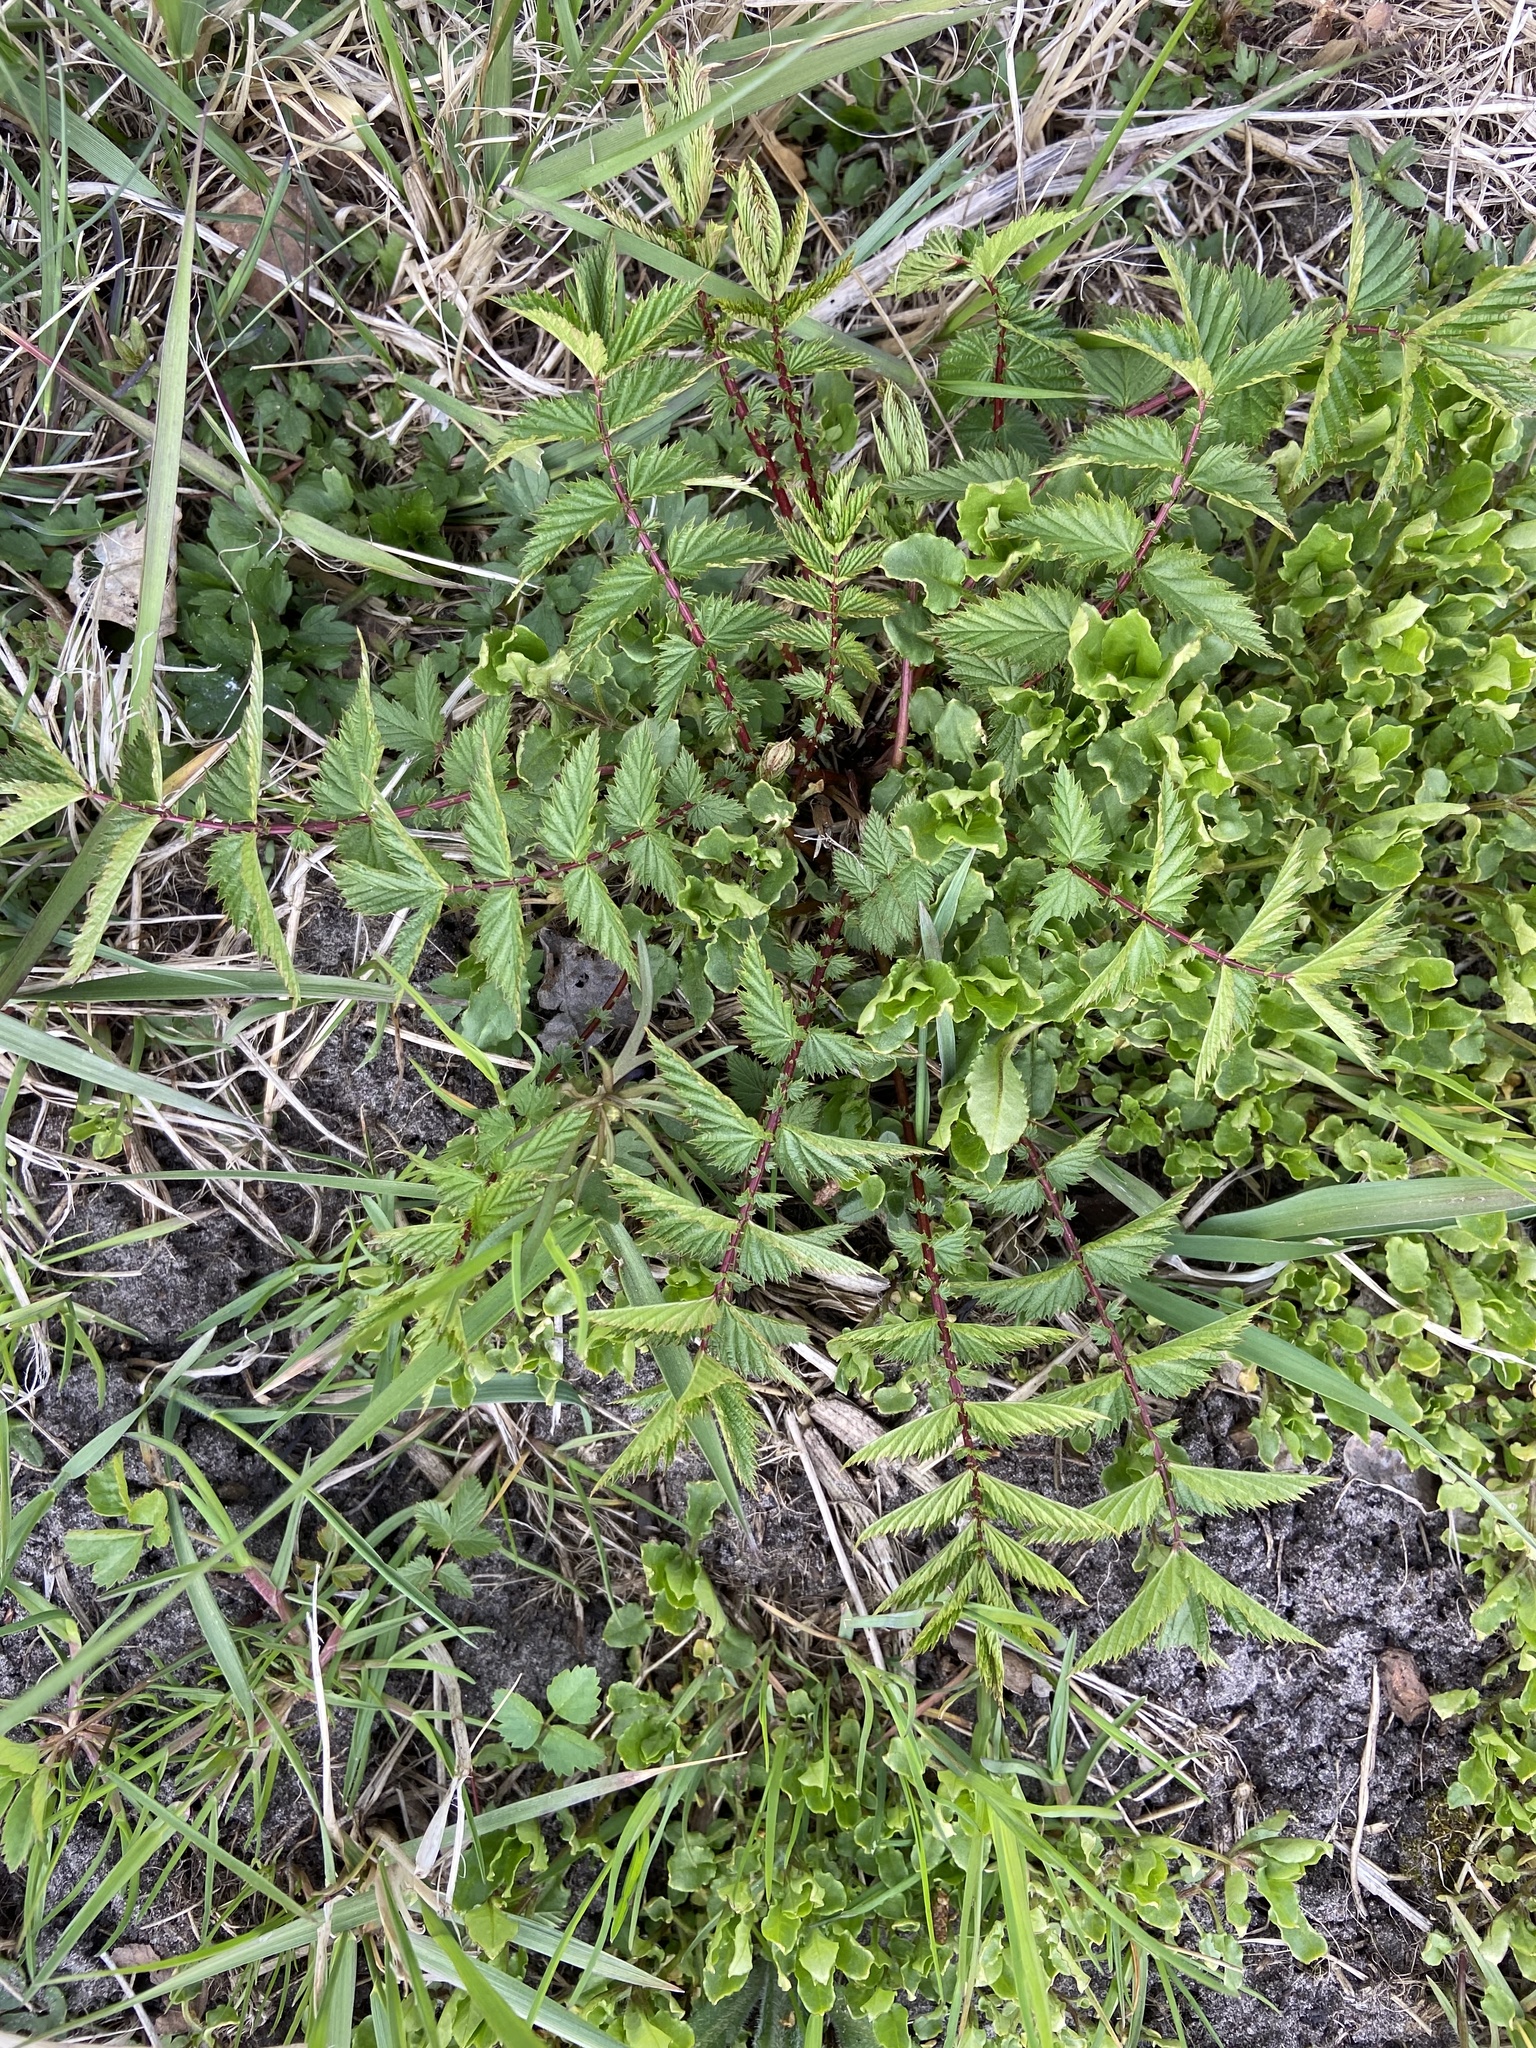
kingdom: Plantae
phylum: Tracheophyta
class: Magnoliopsida
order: Rosales
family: Rosaceae
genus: Filipendula
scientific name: Filipendula ulmaria
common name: Meadowsweet
